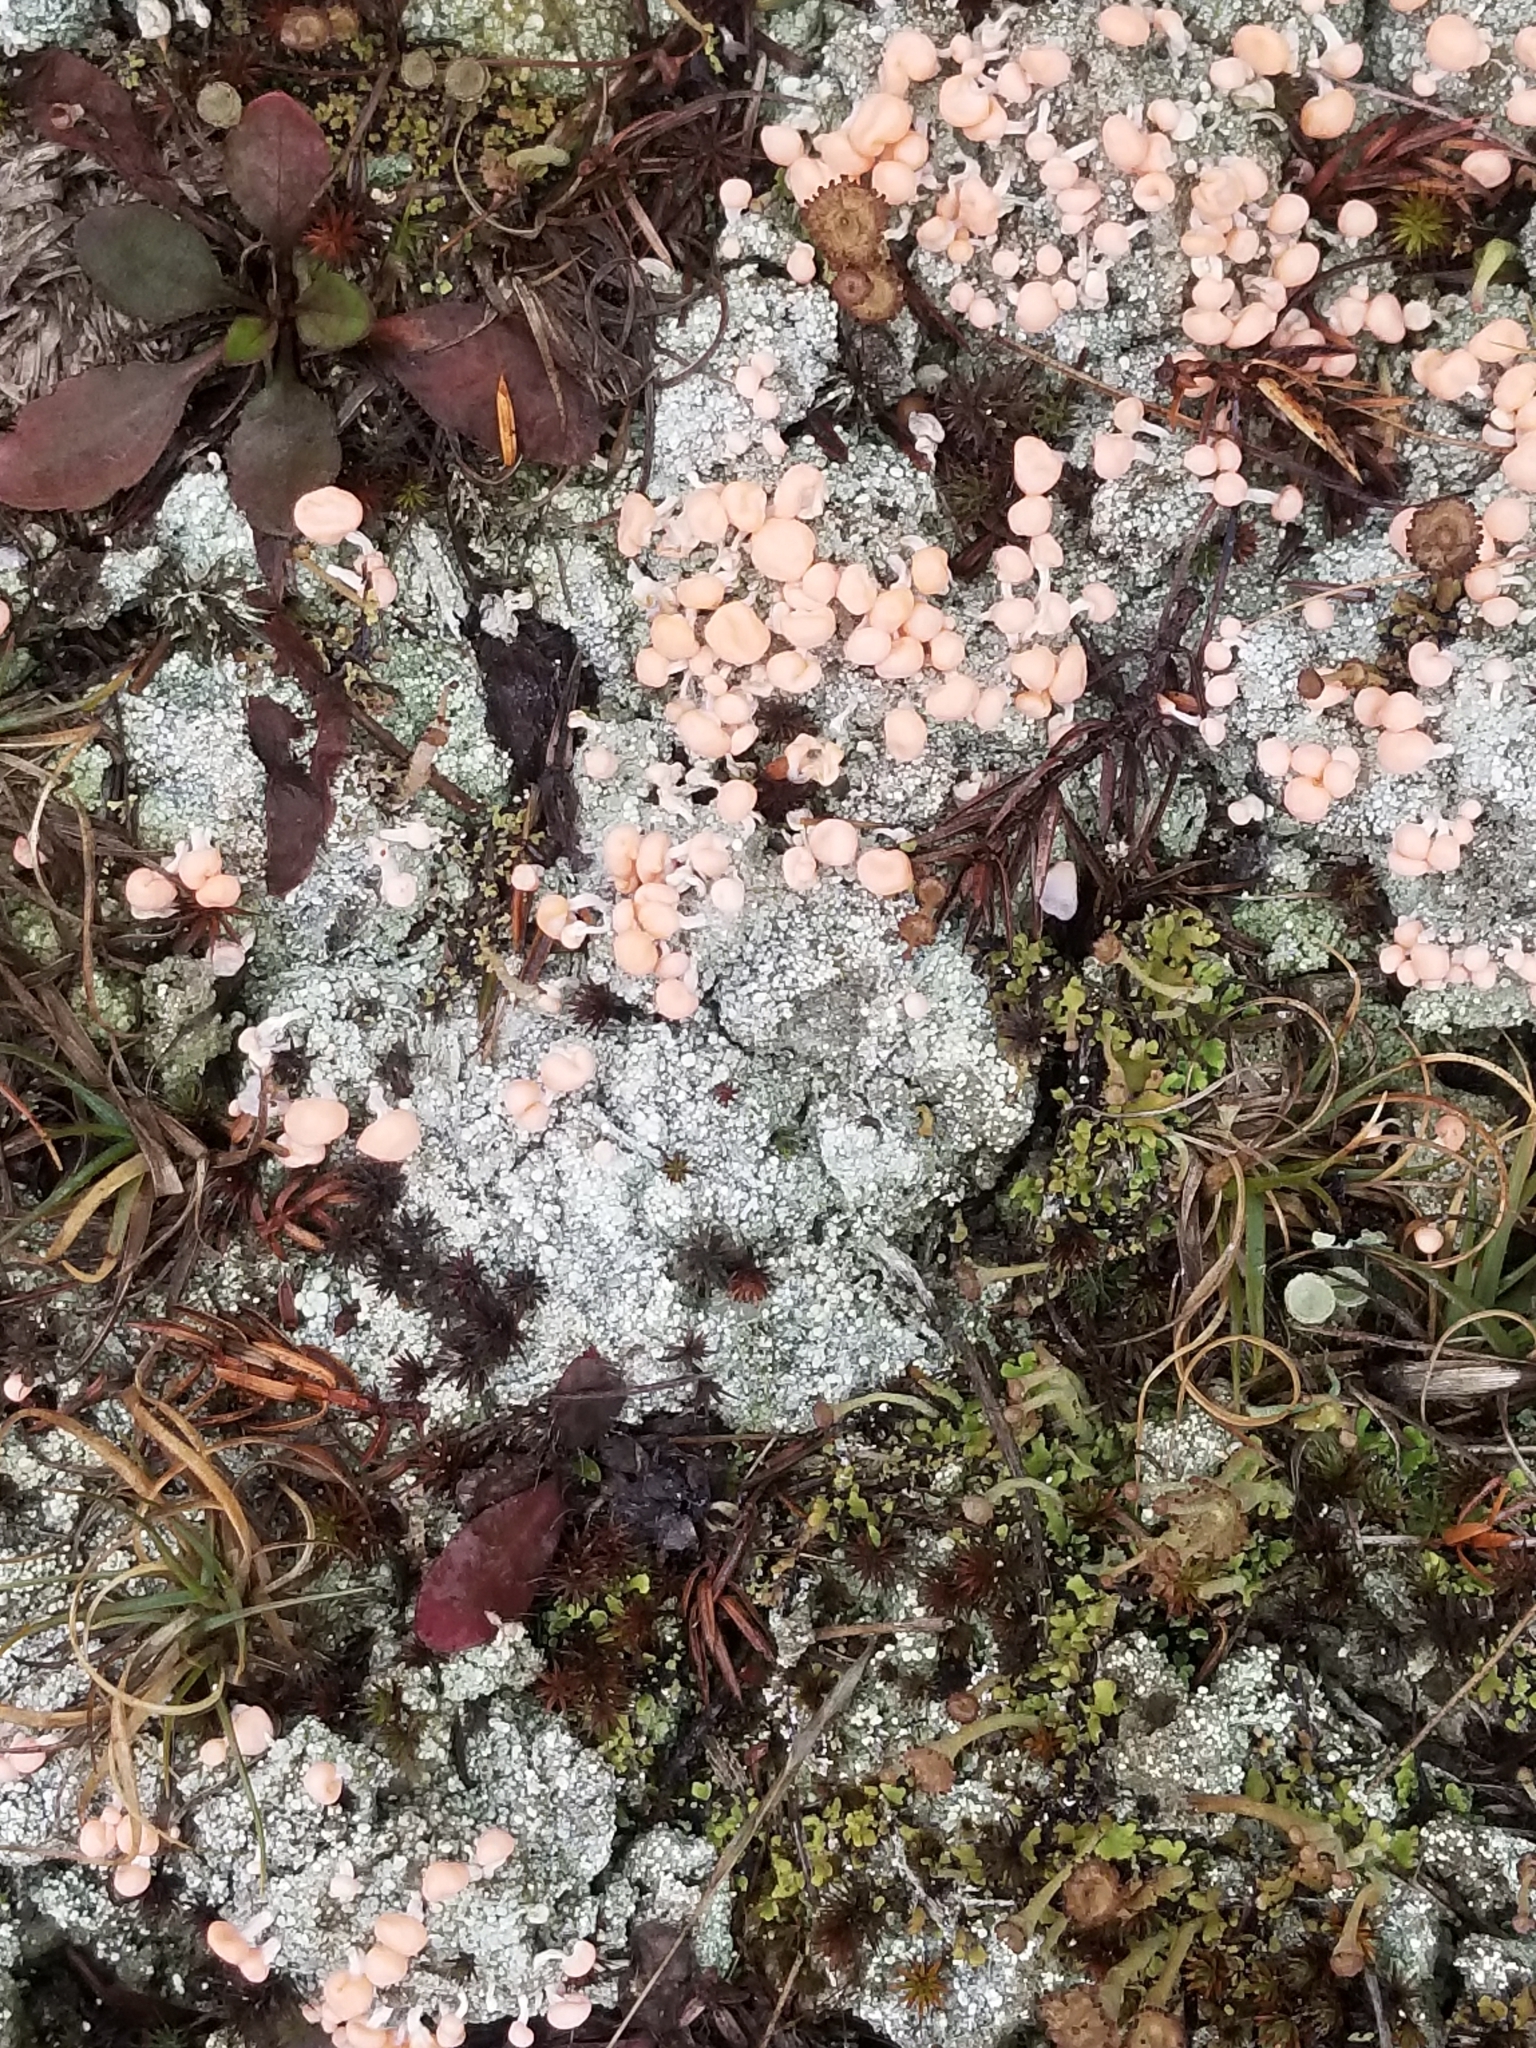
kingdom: Fungi
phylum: Ascomycota
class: Lecanoromycetes
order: Pertusariales
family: Icmadophilaceae
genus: Dibaeis
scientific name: Dibaeis baeomyces
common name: Pink earth lichen
